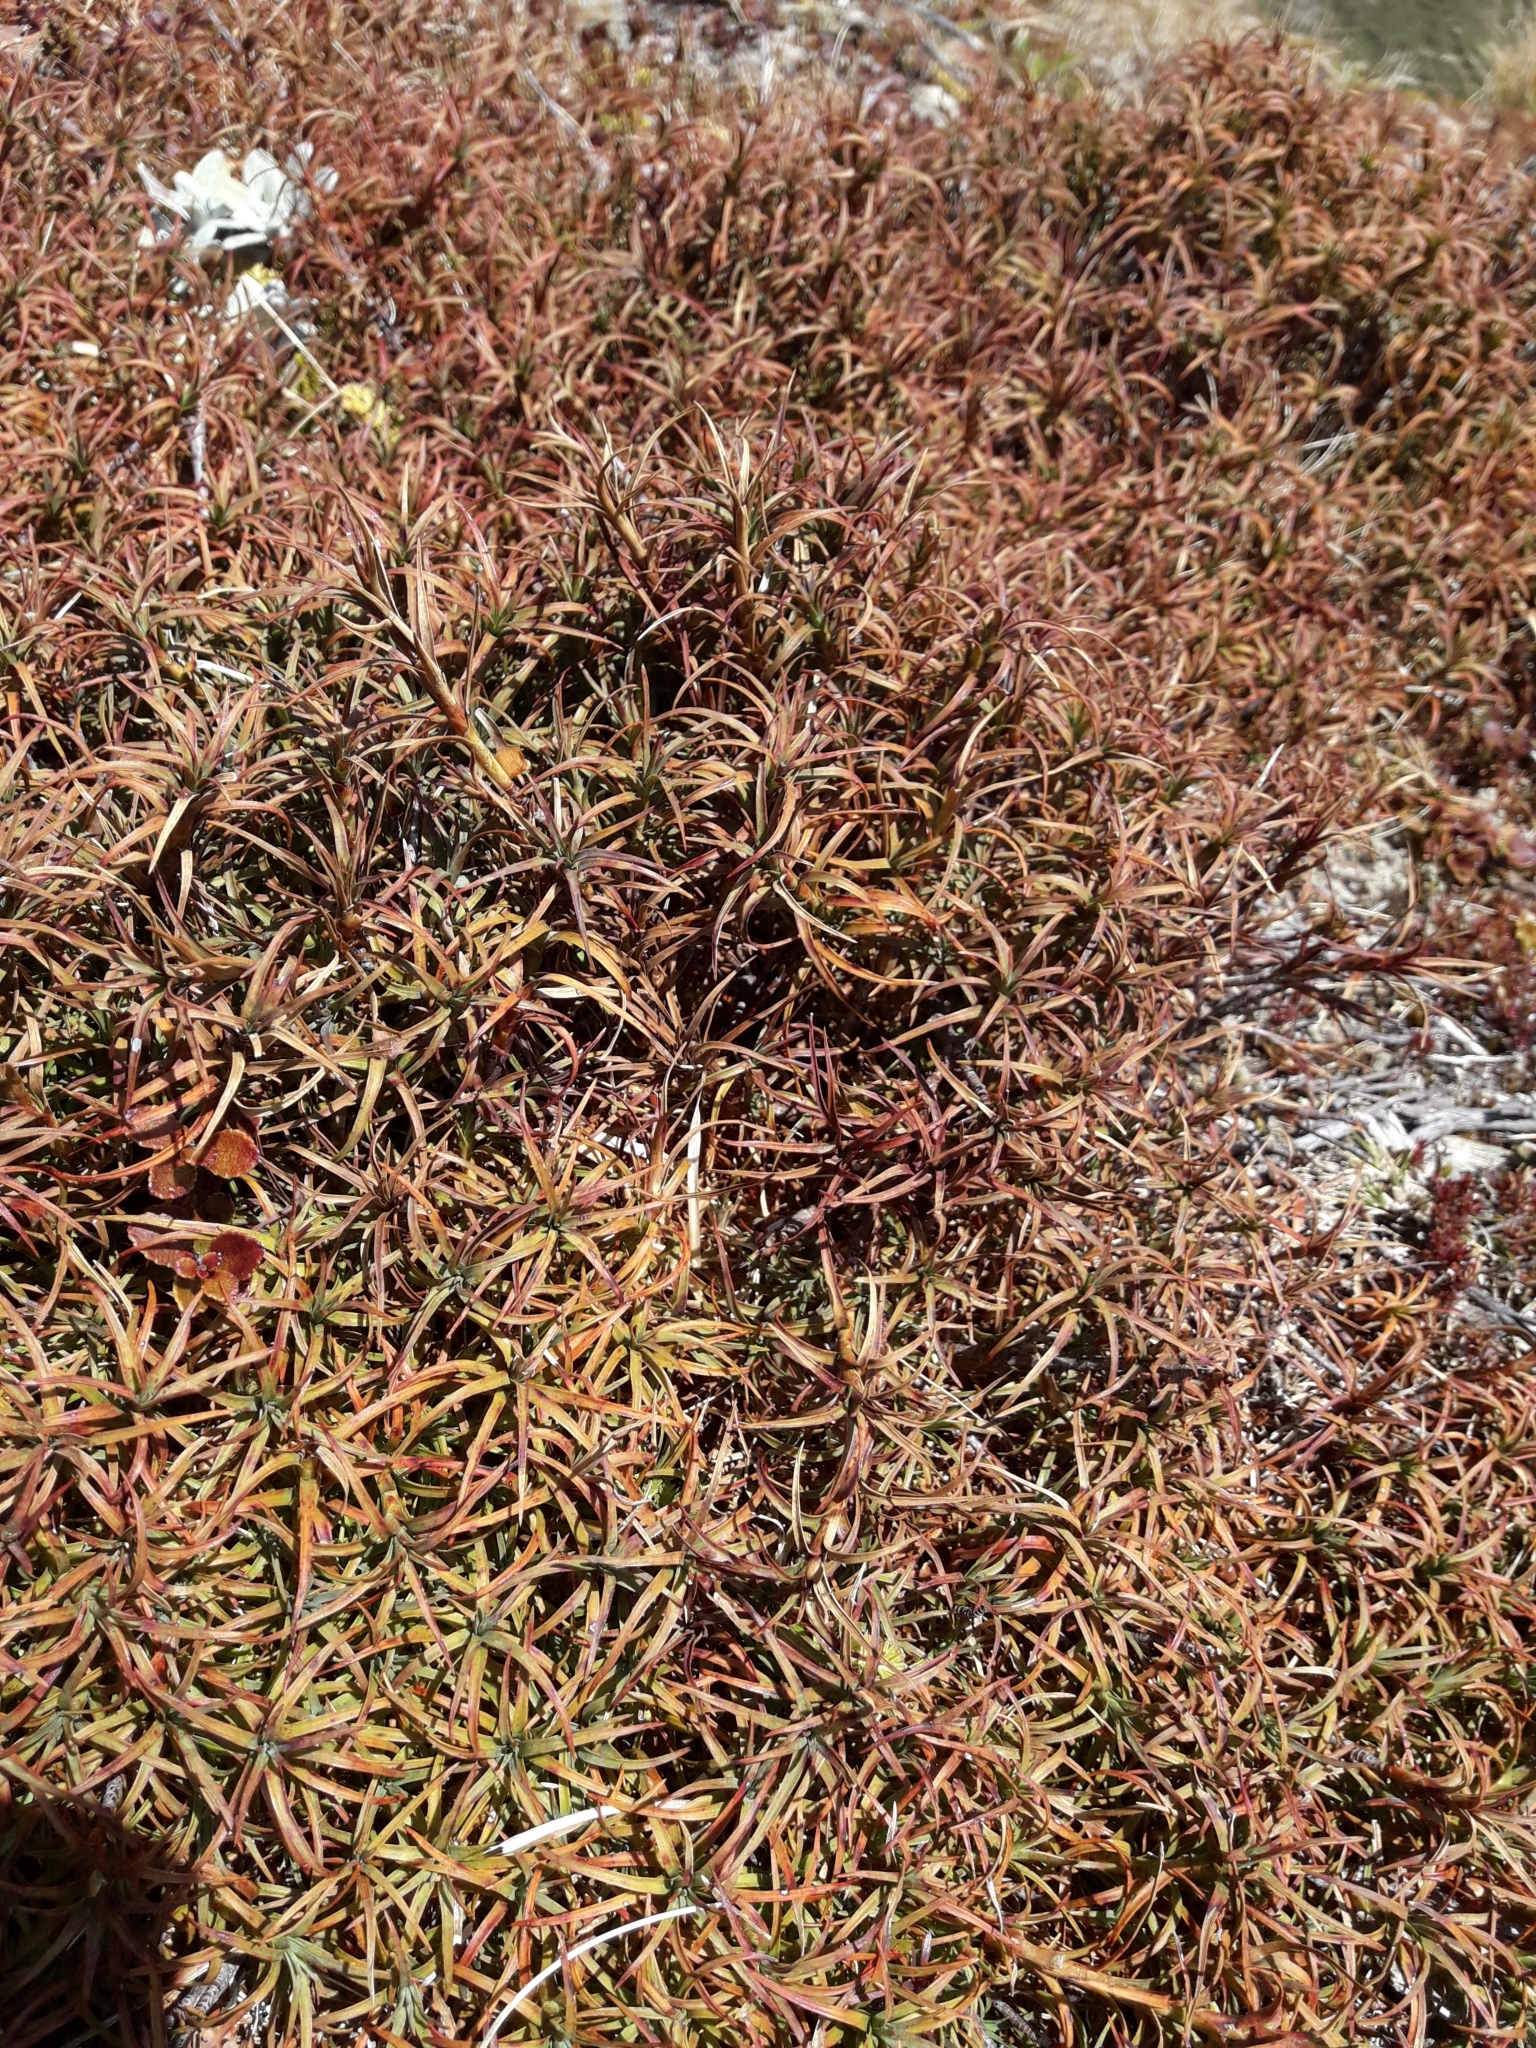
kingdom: Plantae
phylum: Tracheophyta
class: Magnoliopsida
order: Ericales
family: Ericaceae
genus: Dracophyllum
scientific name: Dracophyllum recurvum
